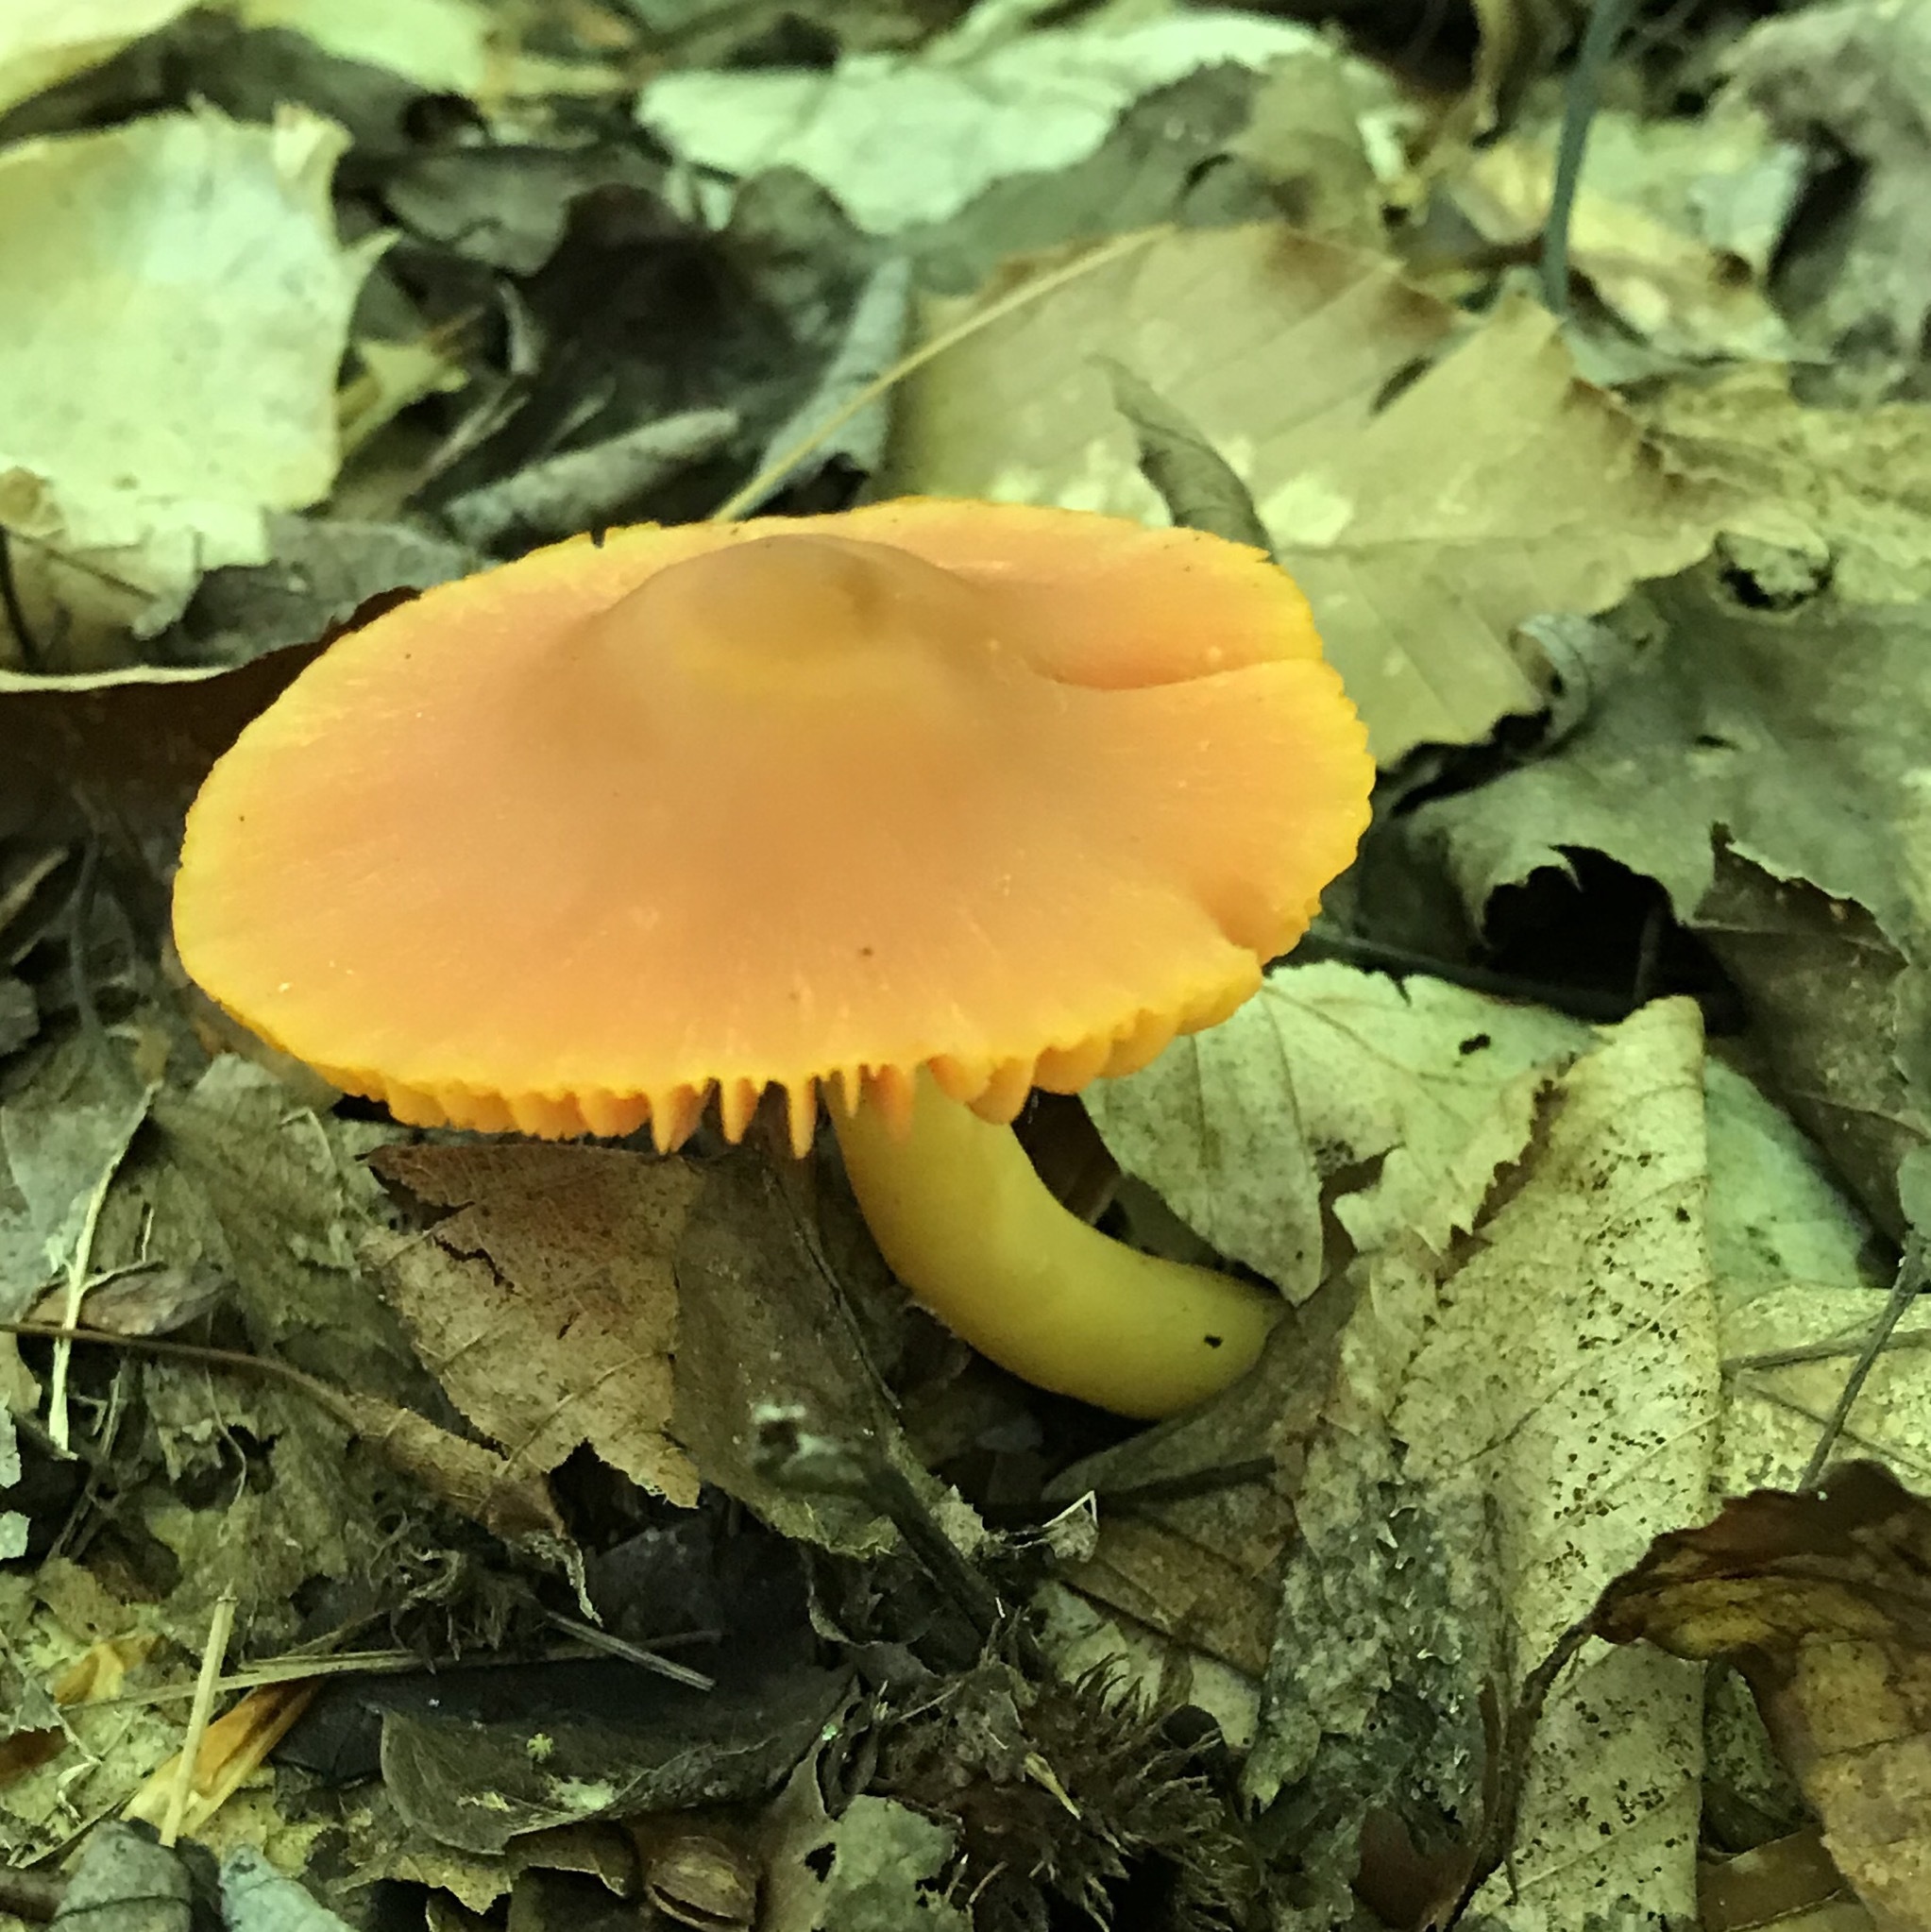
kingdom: Fungi
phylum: Basidiomycota
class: Agaricomycetes
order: Agaricales
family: Hygrophoraceae
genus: Humidicutis
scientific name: Humidicutis marginata
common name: Orange gilled waxcap
